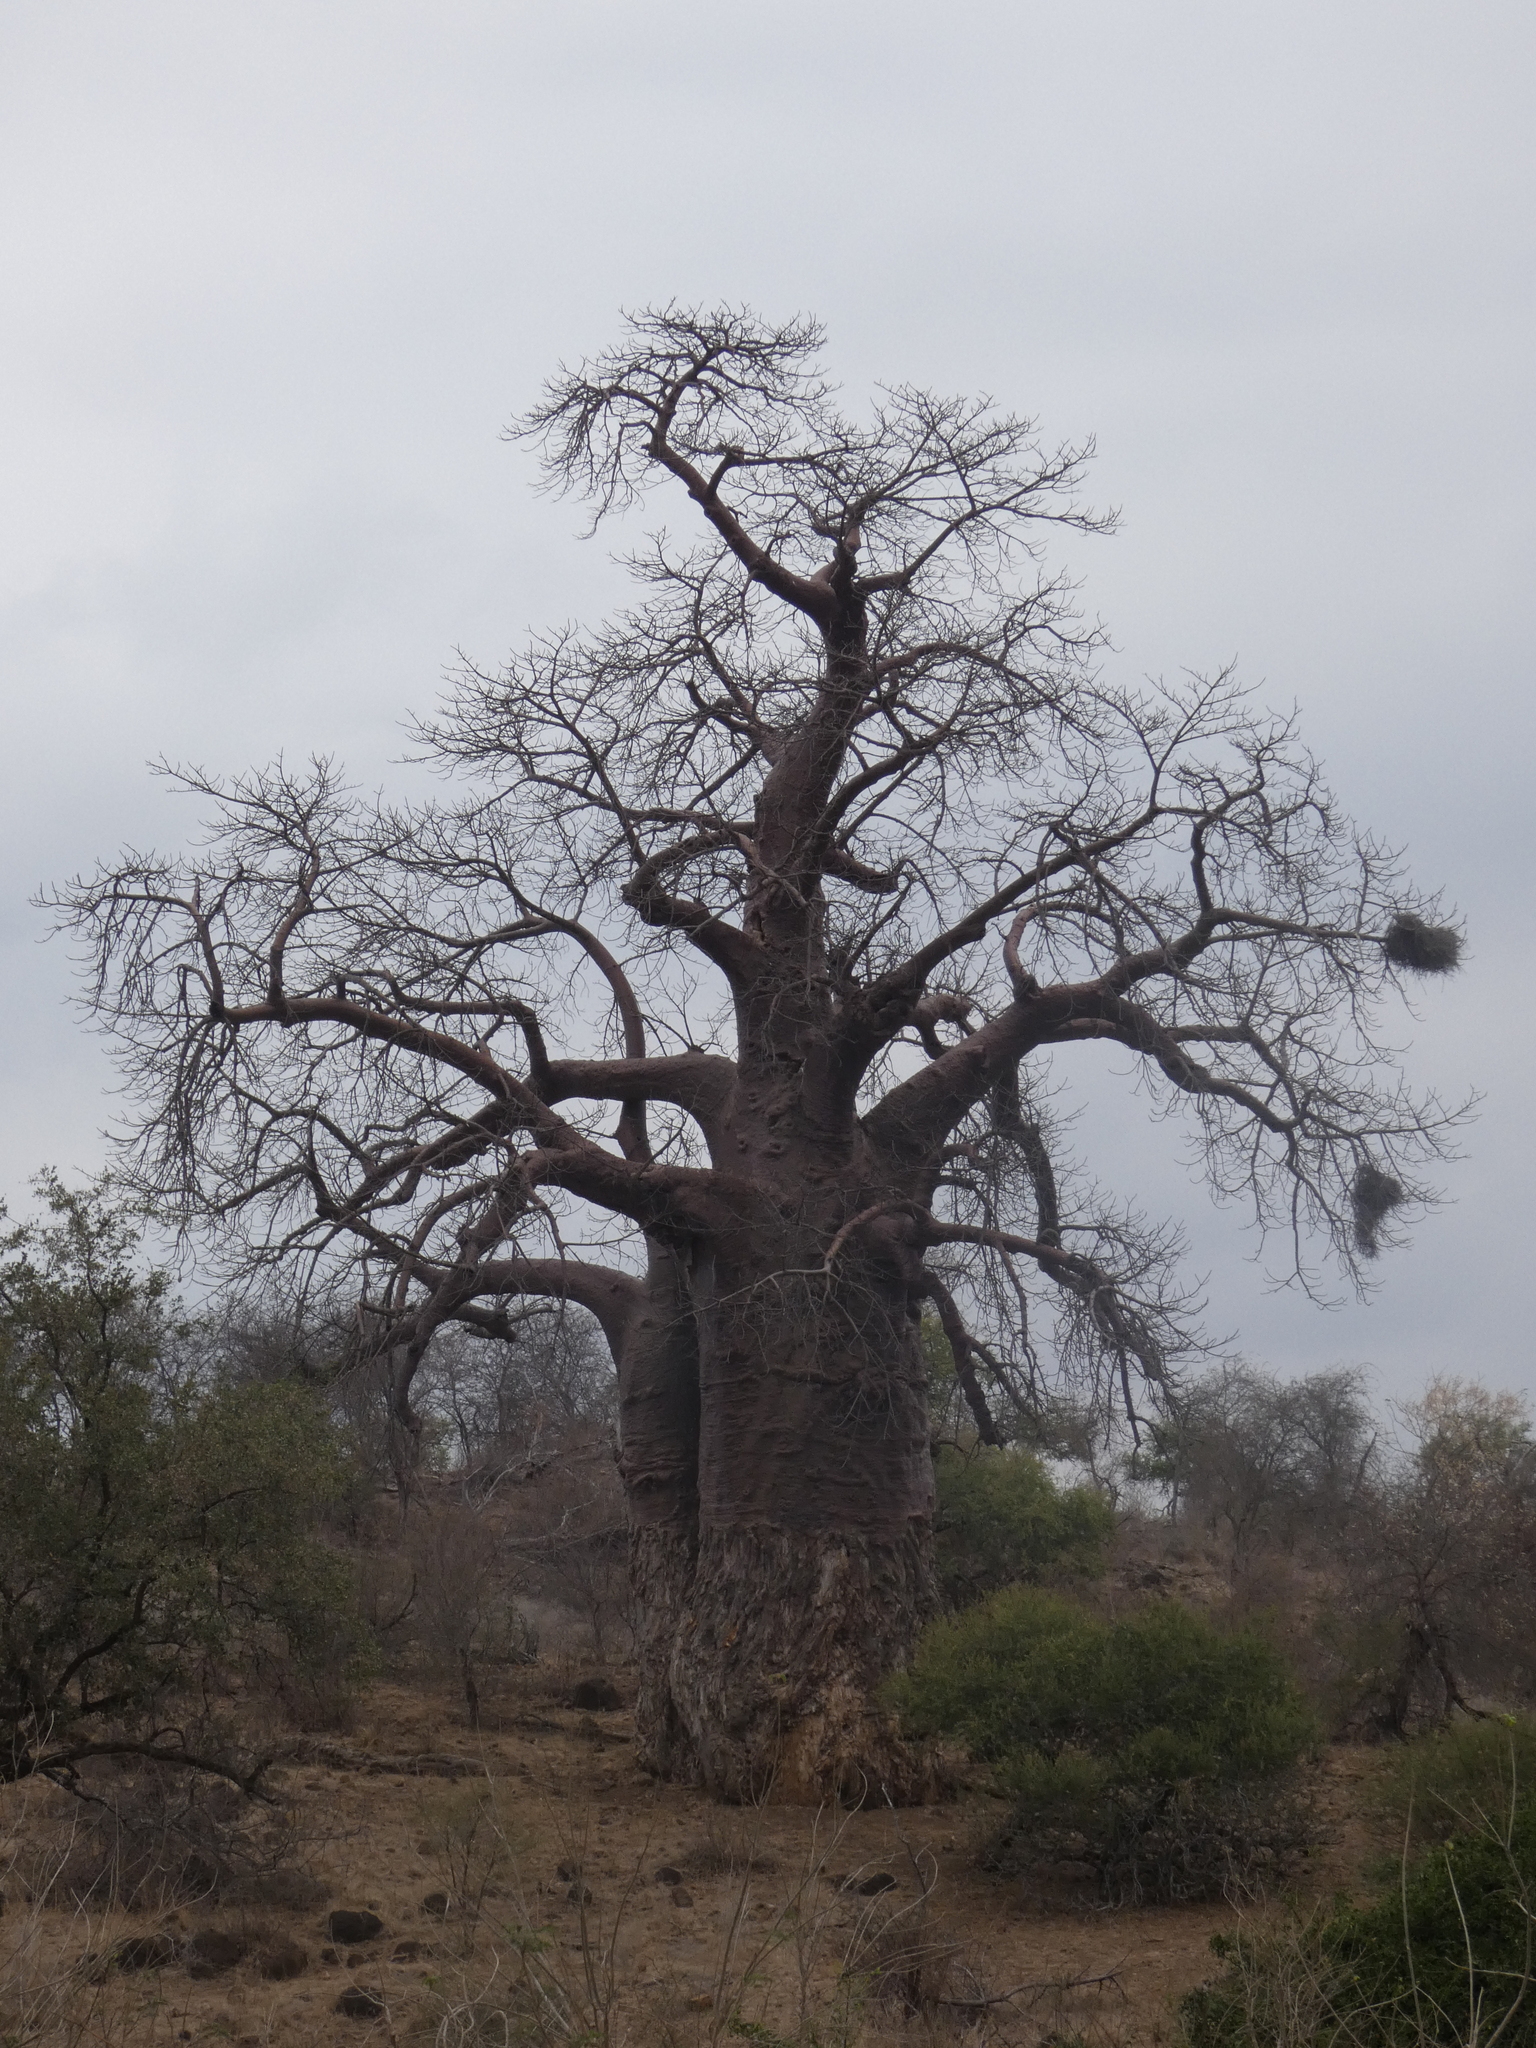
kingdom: Plantae
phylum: Tracheophyta
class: Magnoliopsida
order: Malvales
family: Malvaceae
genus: Adansonia
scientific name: Adansonia digitata
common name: Dead-rat-tree
